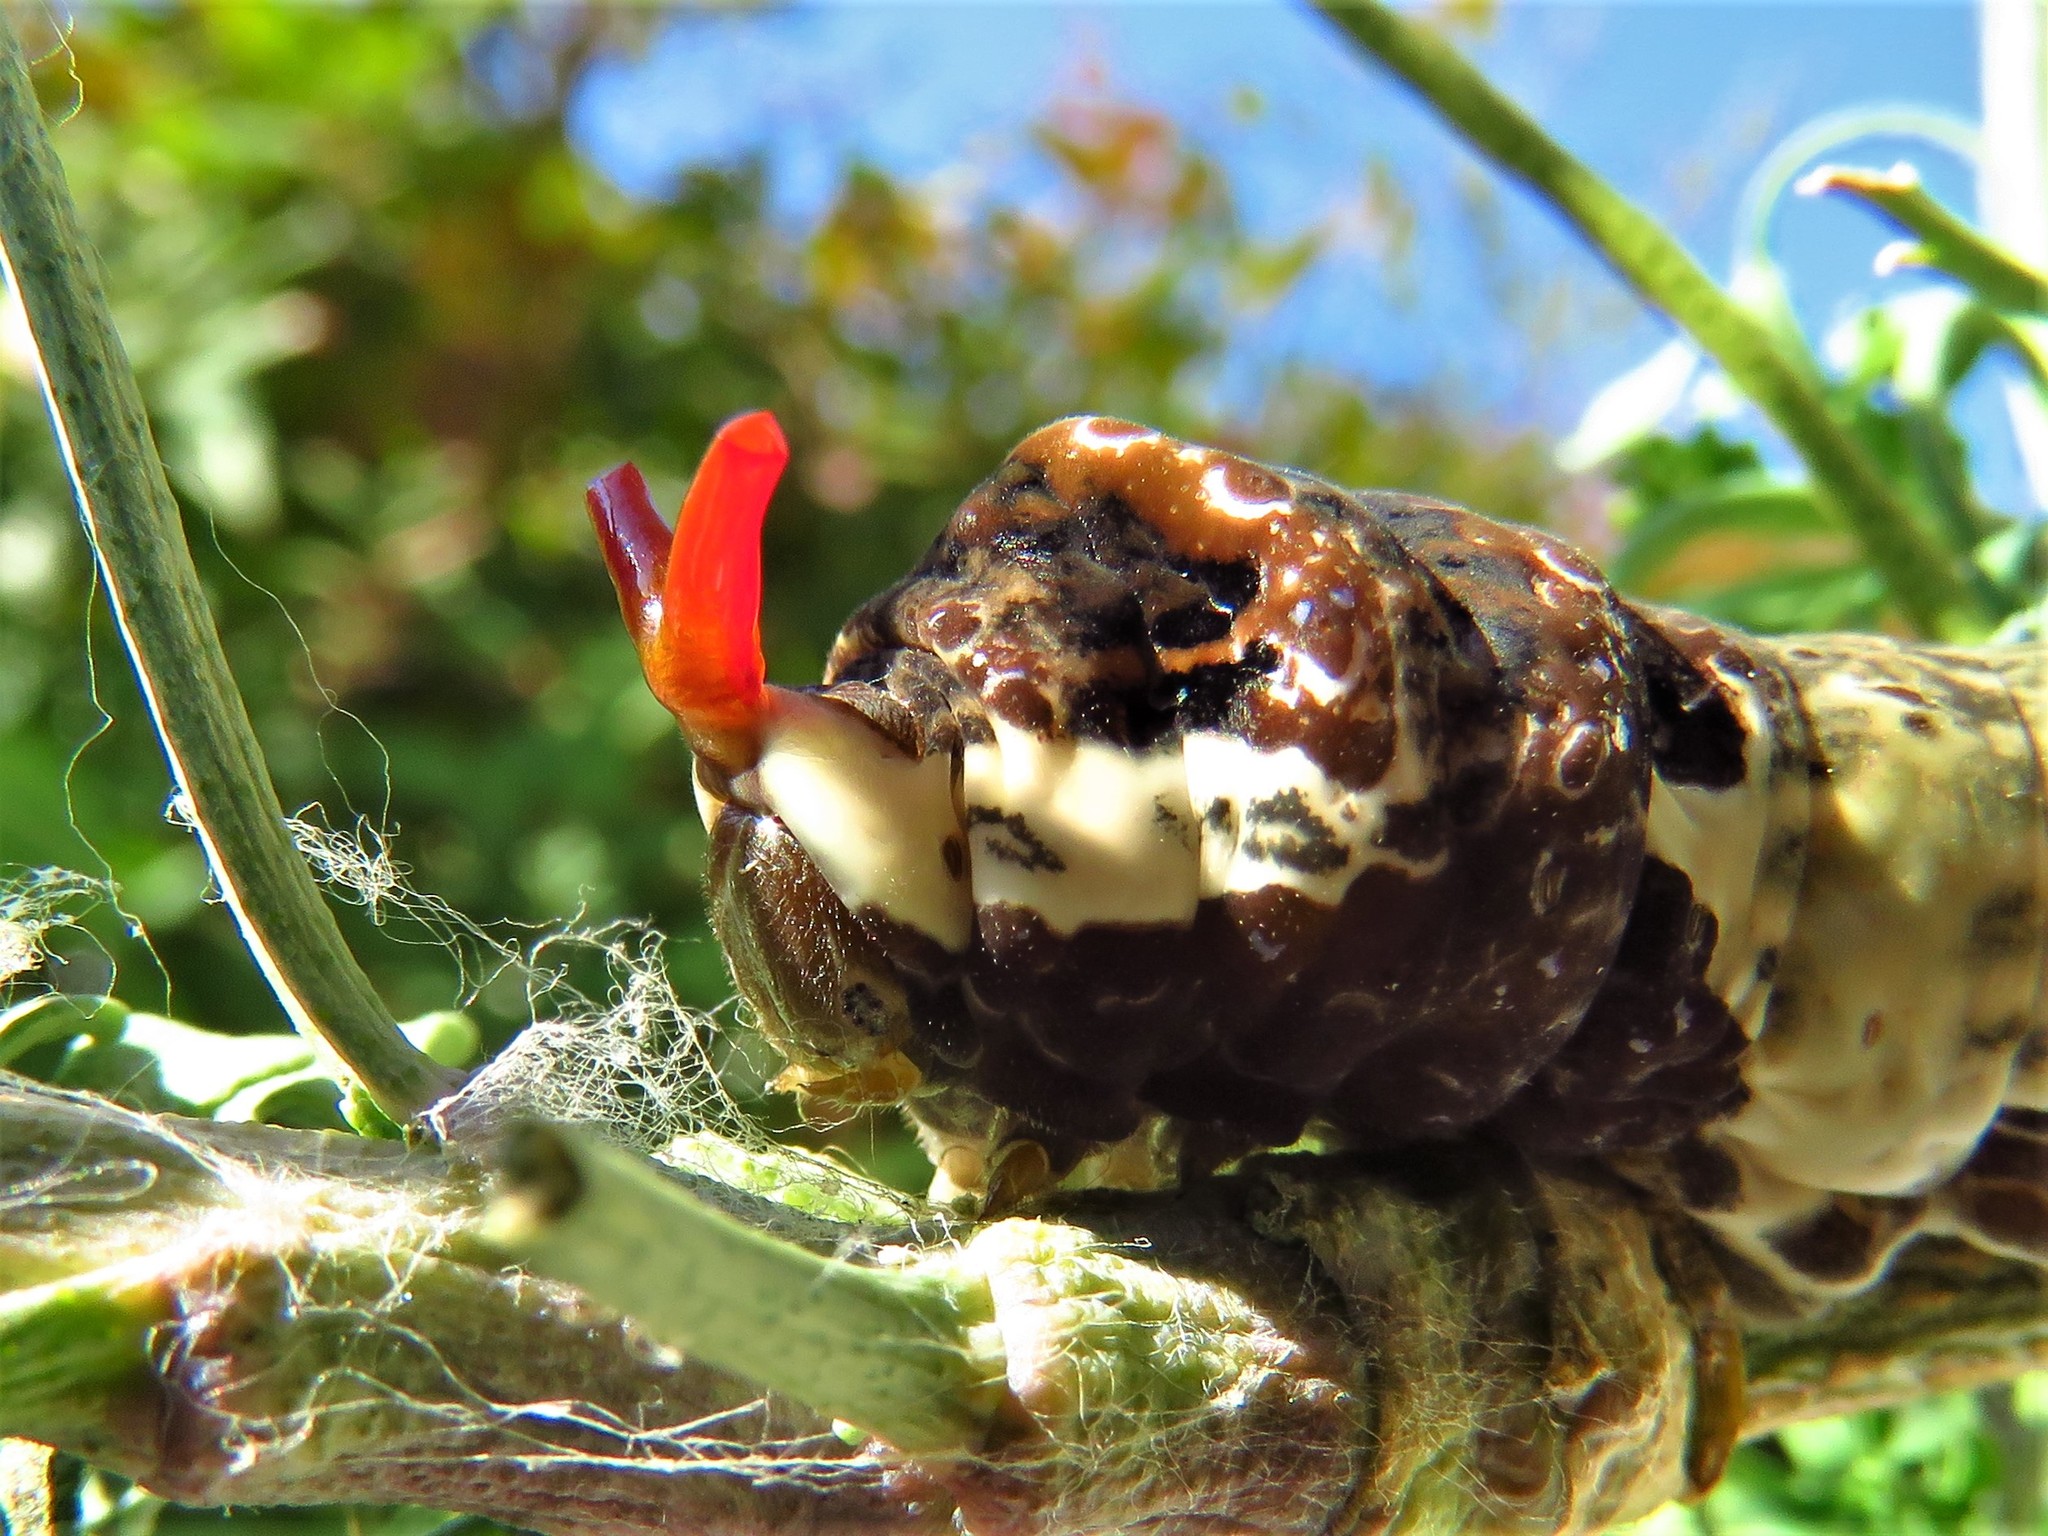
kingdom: Animalia
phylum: Arthropoda
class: Insecta
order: Lepidoptera
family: Papilionidae
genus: Papilio
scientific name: Papilio cresphontes
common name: Giant swallowtail
